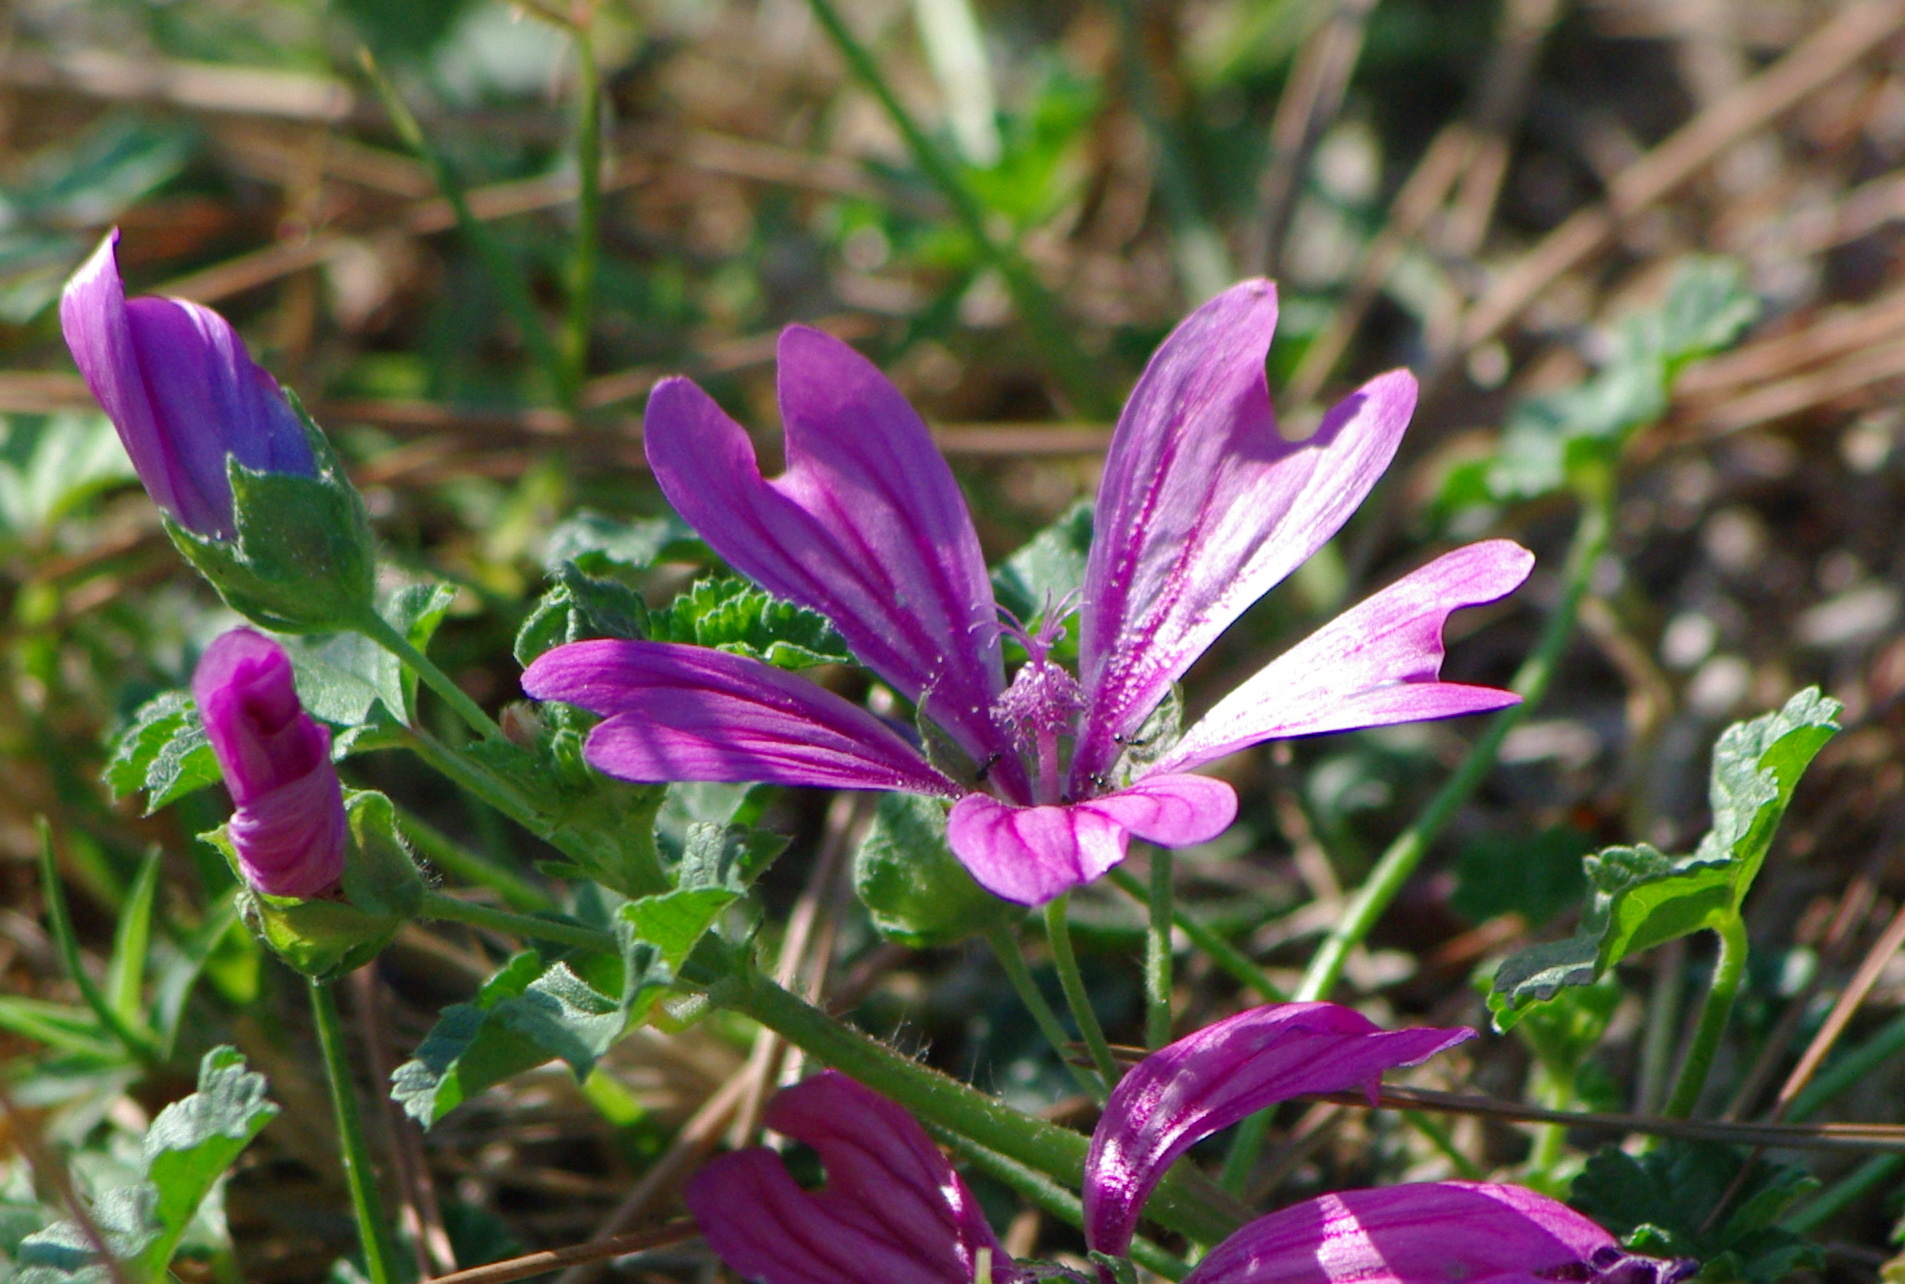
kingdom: Plantae
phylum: Tracheophyta
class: Magnoliopsida
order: Malvales
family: Malvaceae
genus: Malva
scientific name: Malva sylvestris
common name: Common mallow
